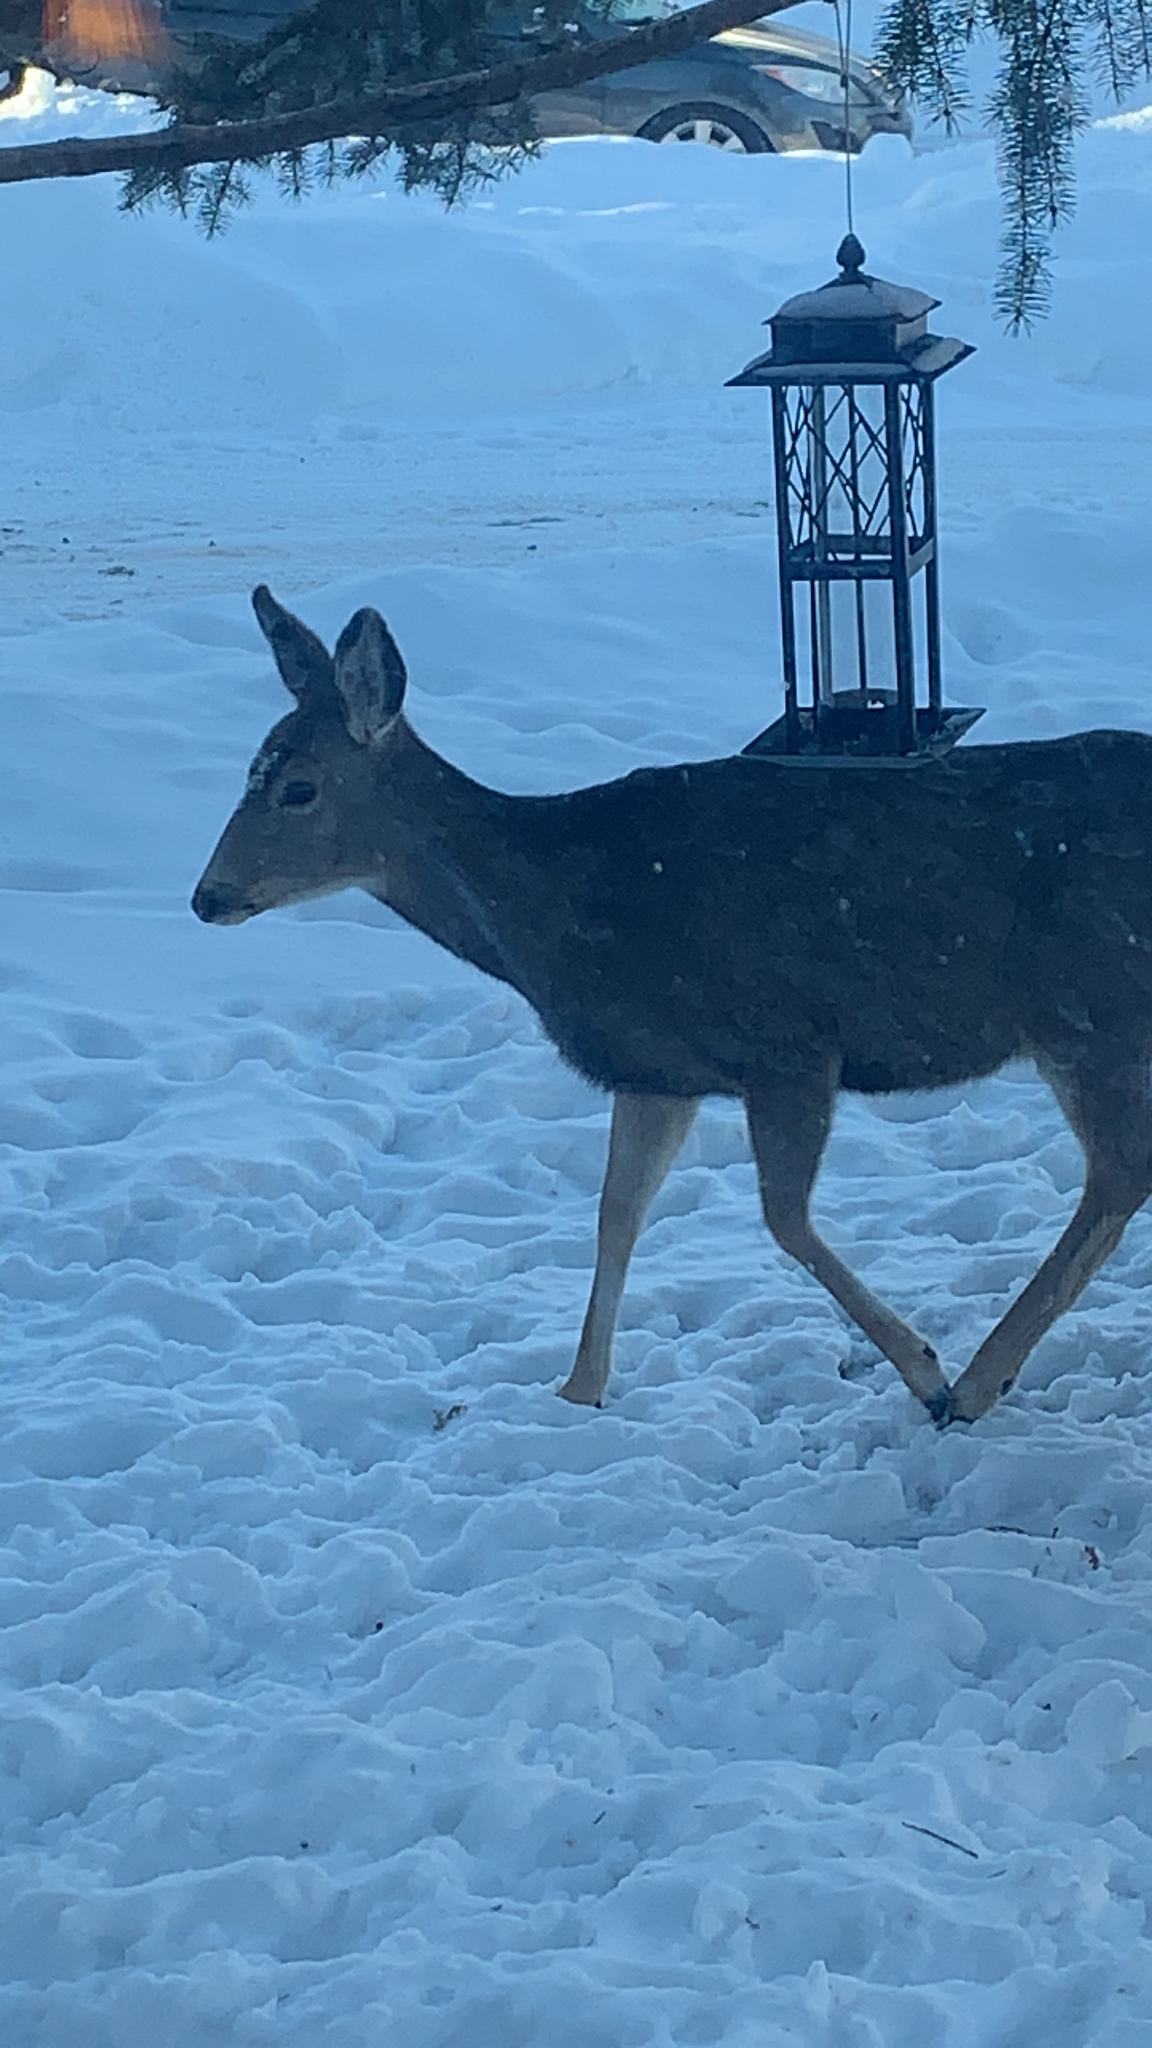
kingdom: Animalia
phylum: Chordata
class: Mammalia
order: Artiodactyla
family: Cervidae
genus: Odocoileus
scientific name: Odocoileus hemionus
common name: Mule deer
